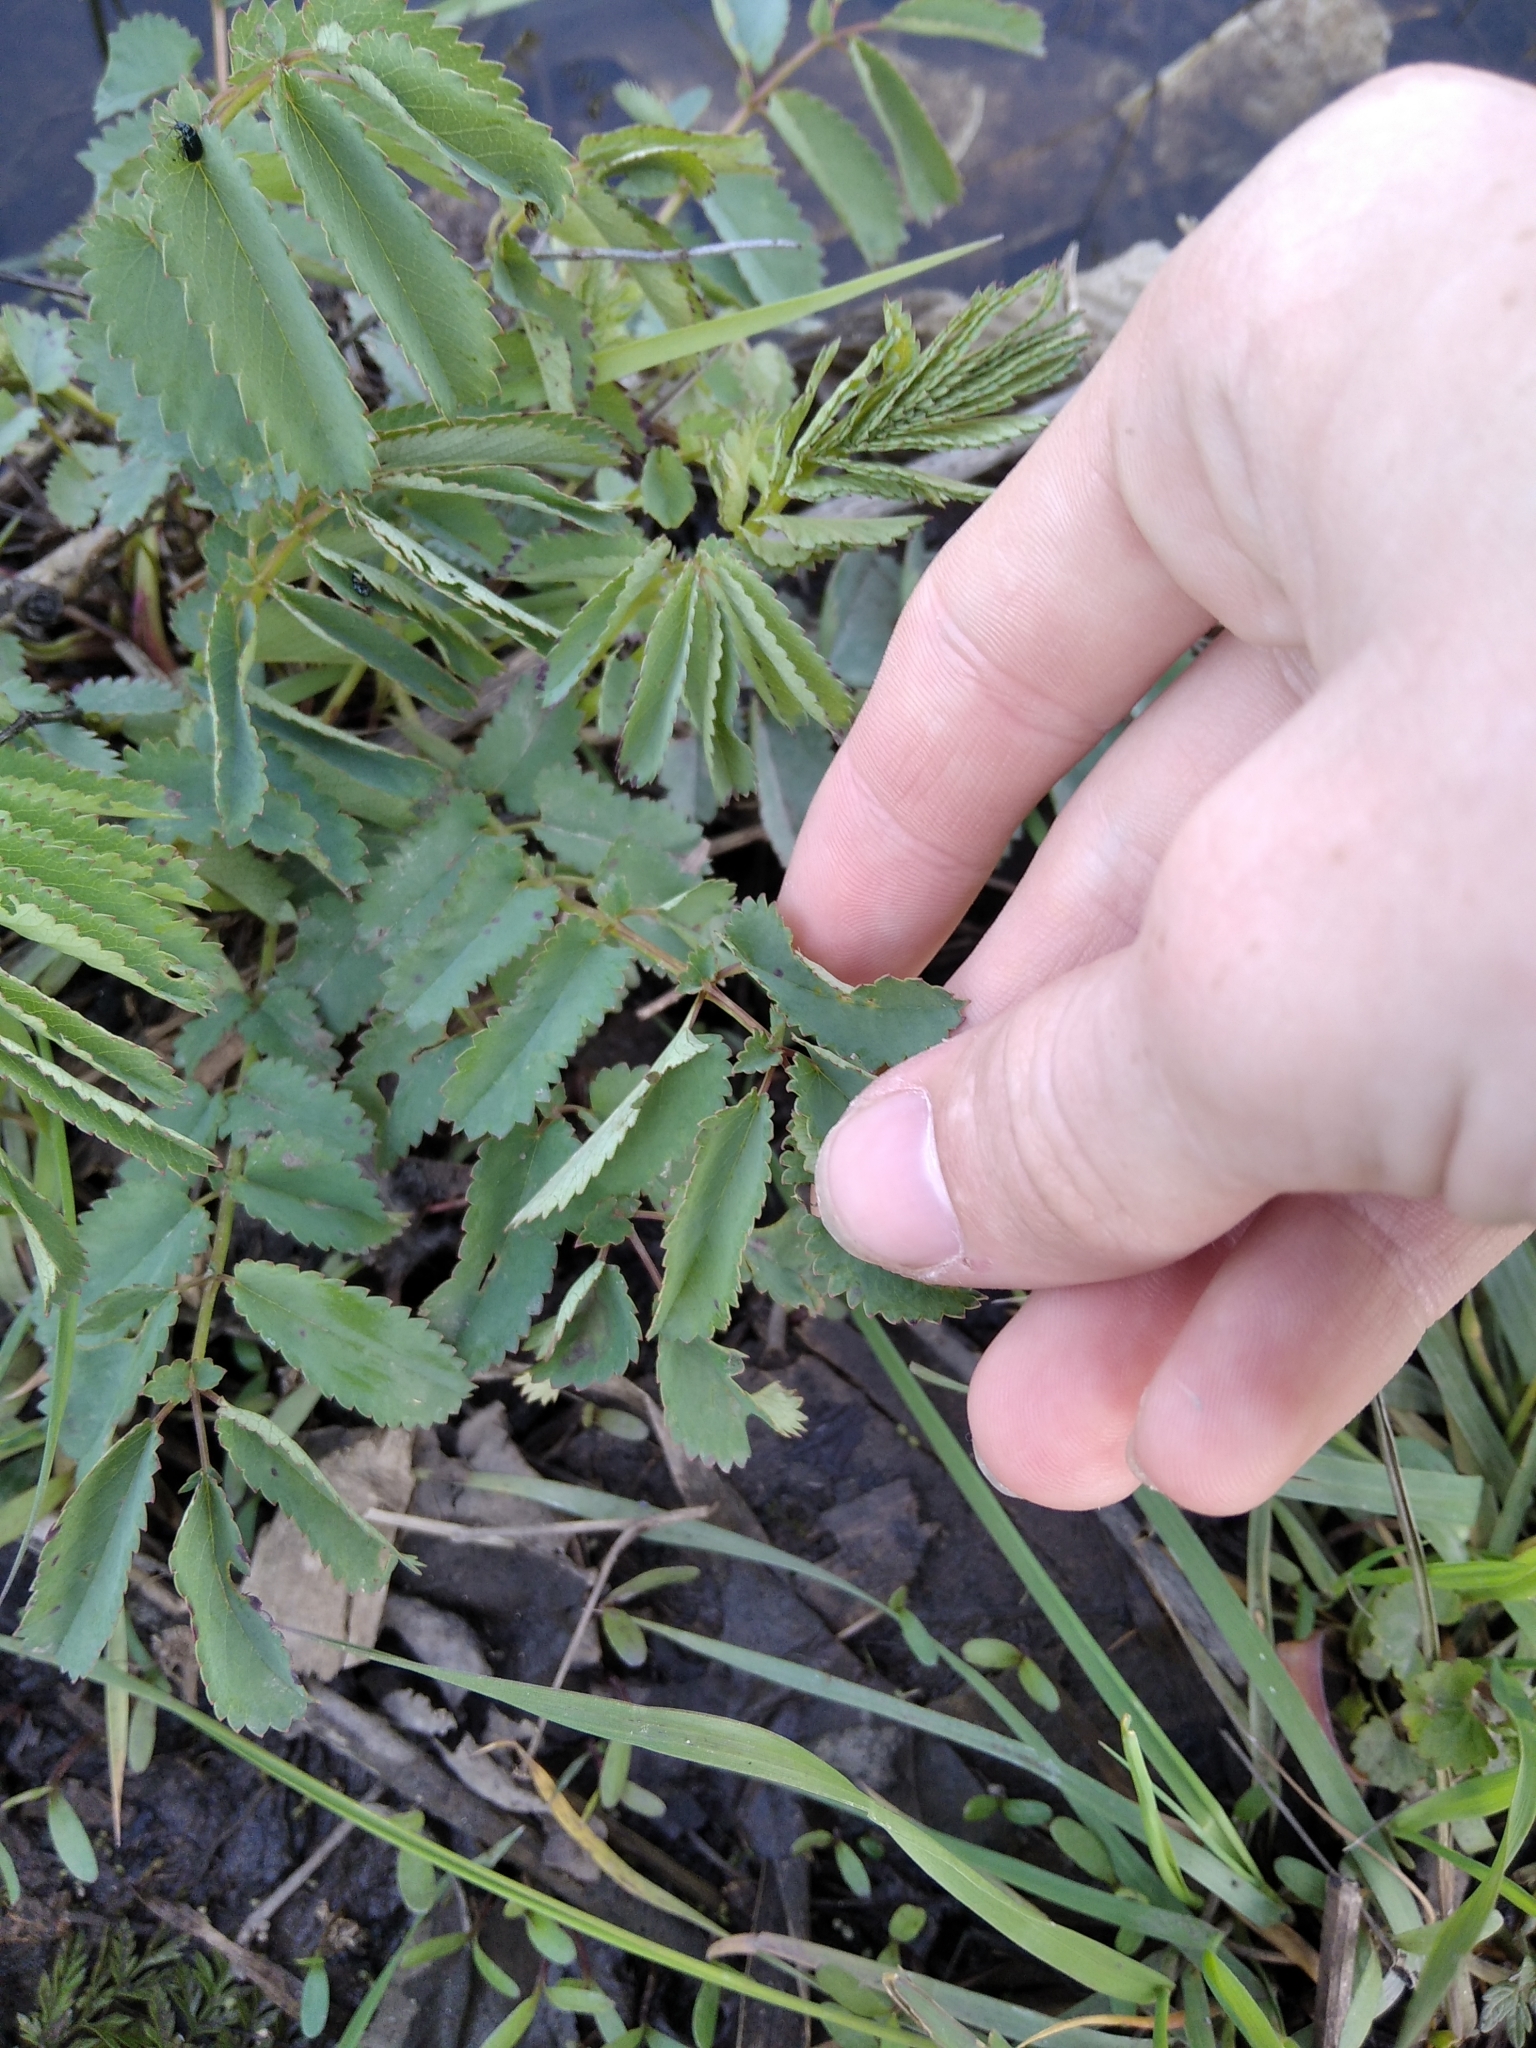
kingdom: Plantae
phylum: Tracheophyta
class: Magnoliopsida
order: Rosales
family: Rosaceae
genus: Sanguisorba
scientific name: Sanguisorba officinalis
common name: Great burnet
